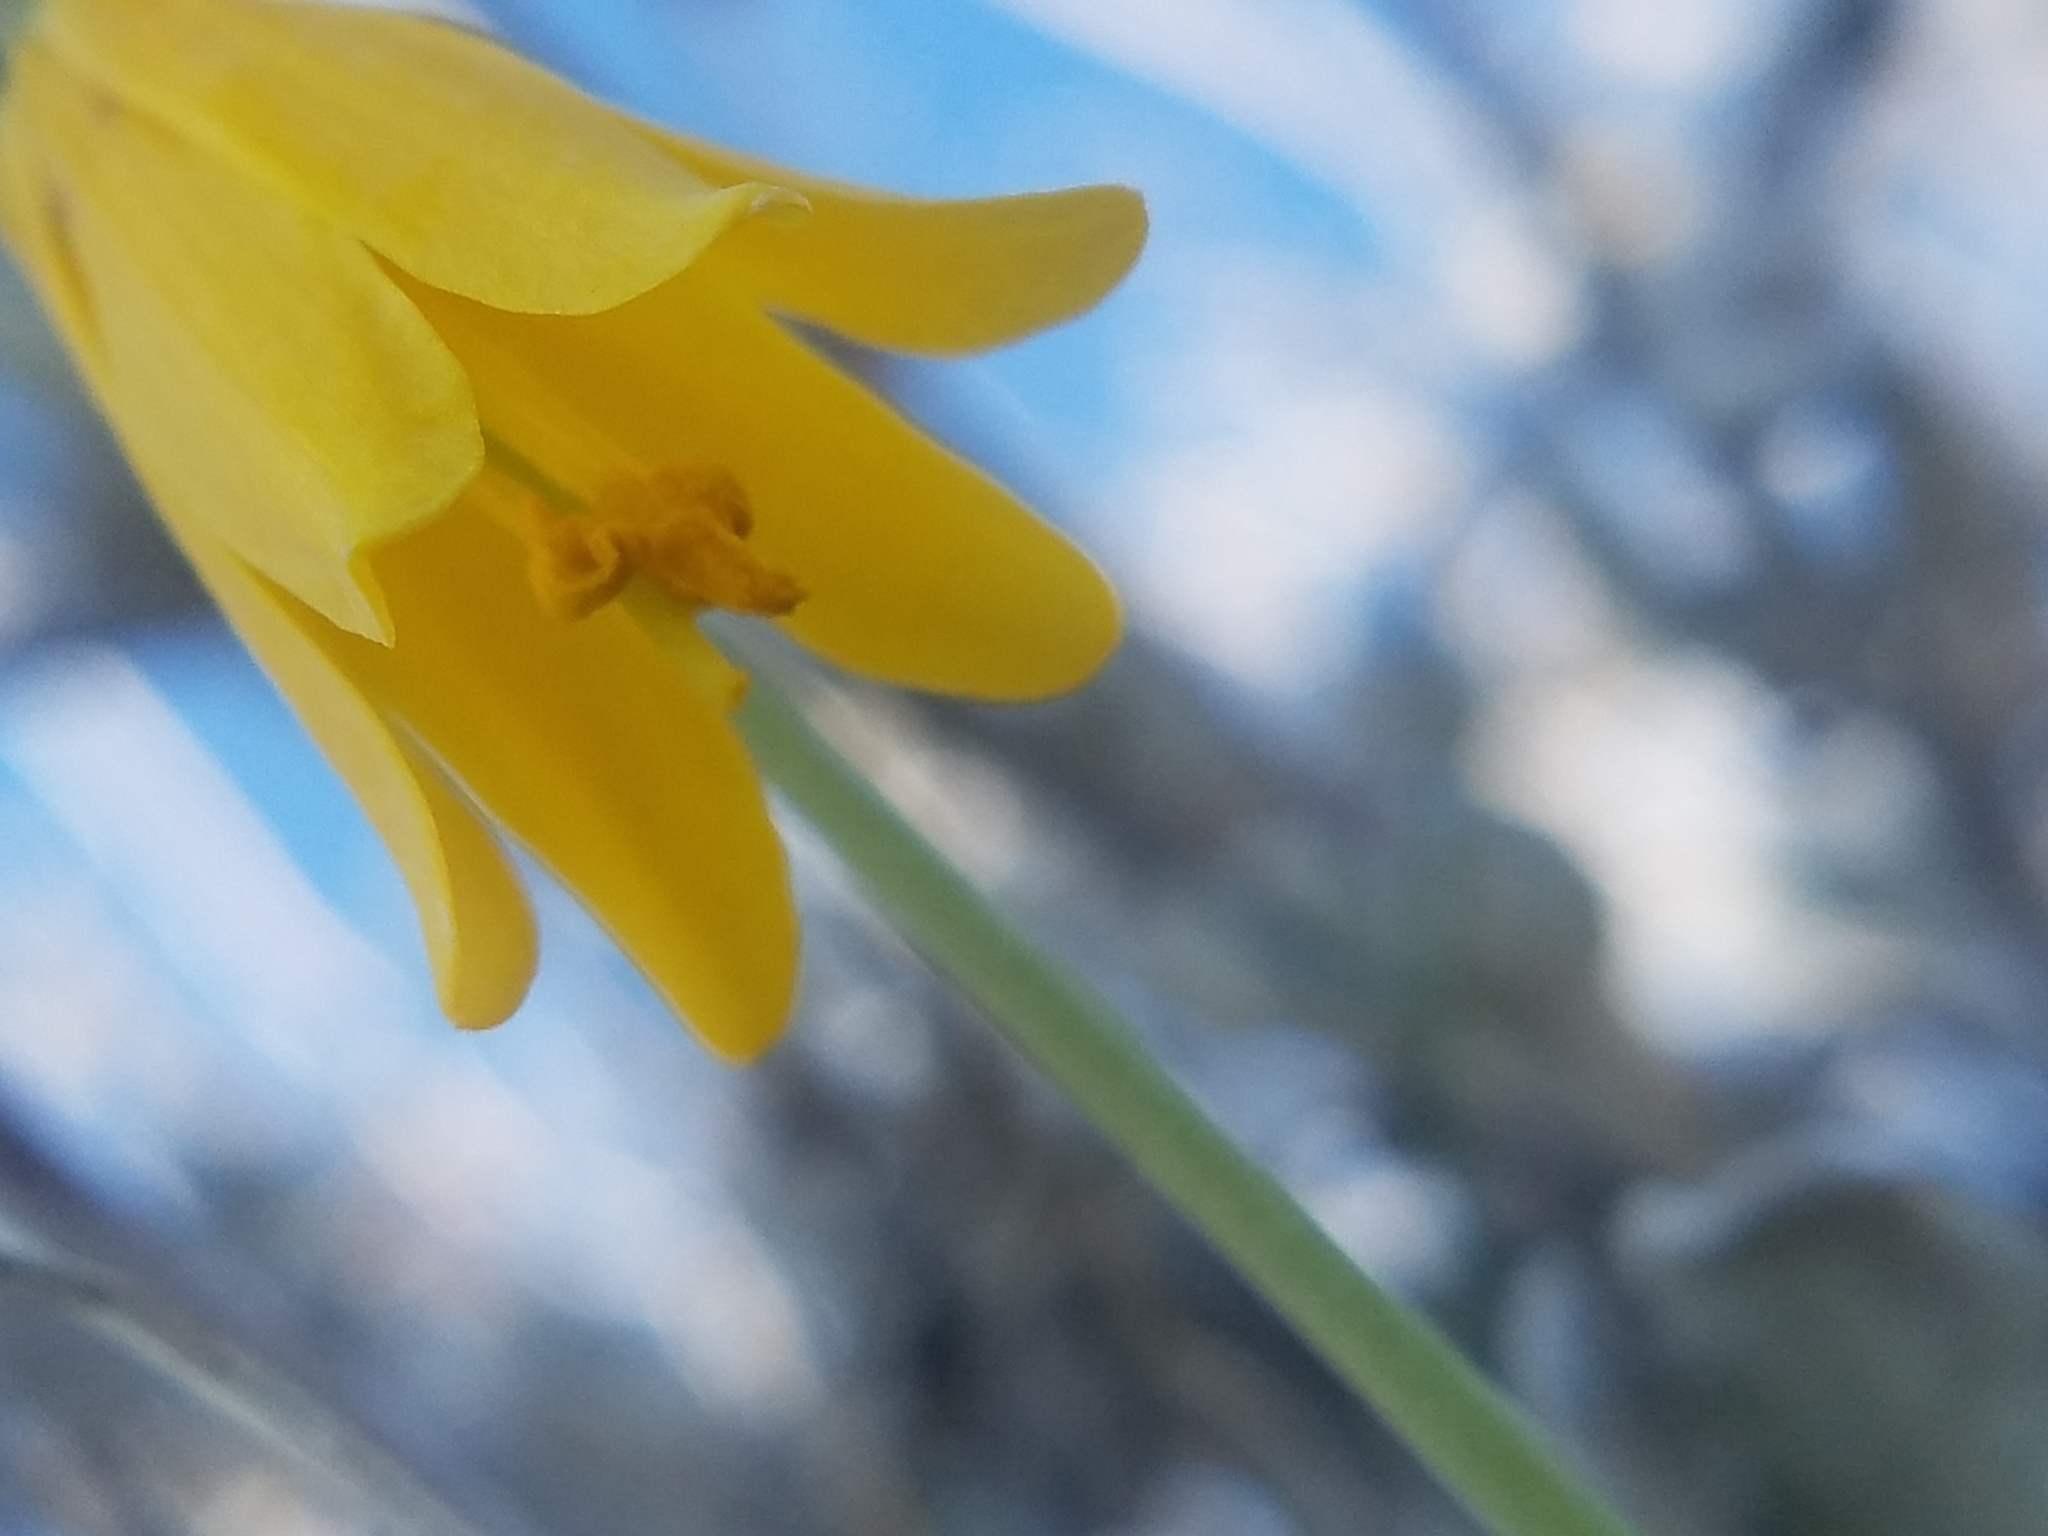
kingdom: Plantae
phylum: Tracheophyta
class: Liliopsida
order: Liliales
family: Liliaceae
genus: Fritillaria
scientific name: Fritillaria pudica
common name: Yellow fritillary
